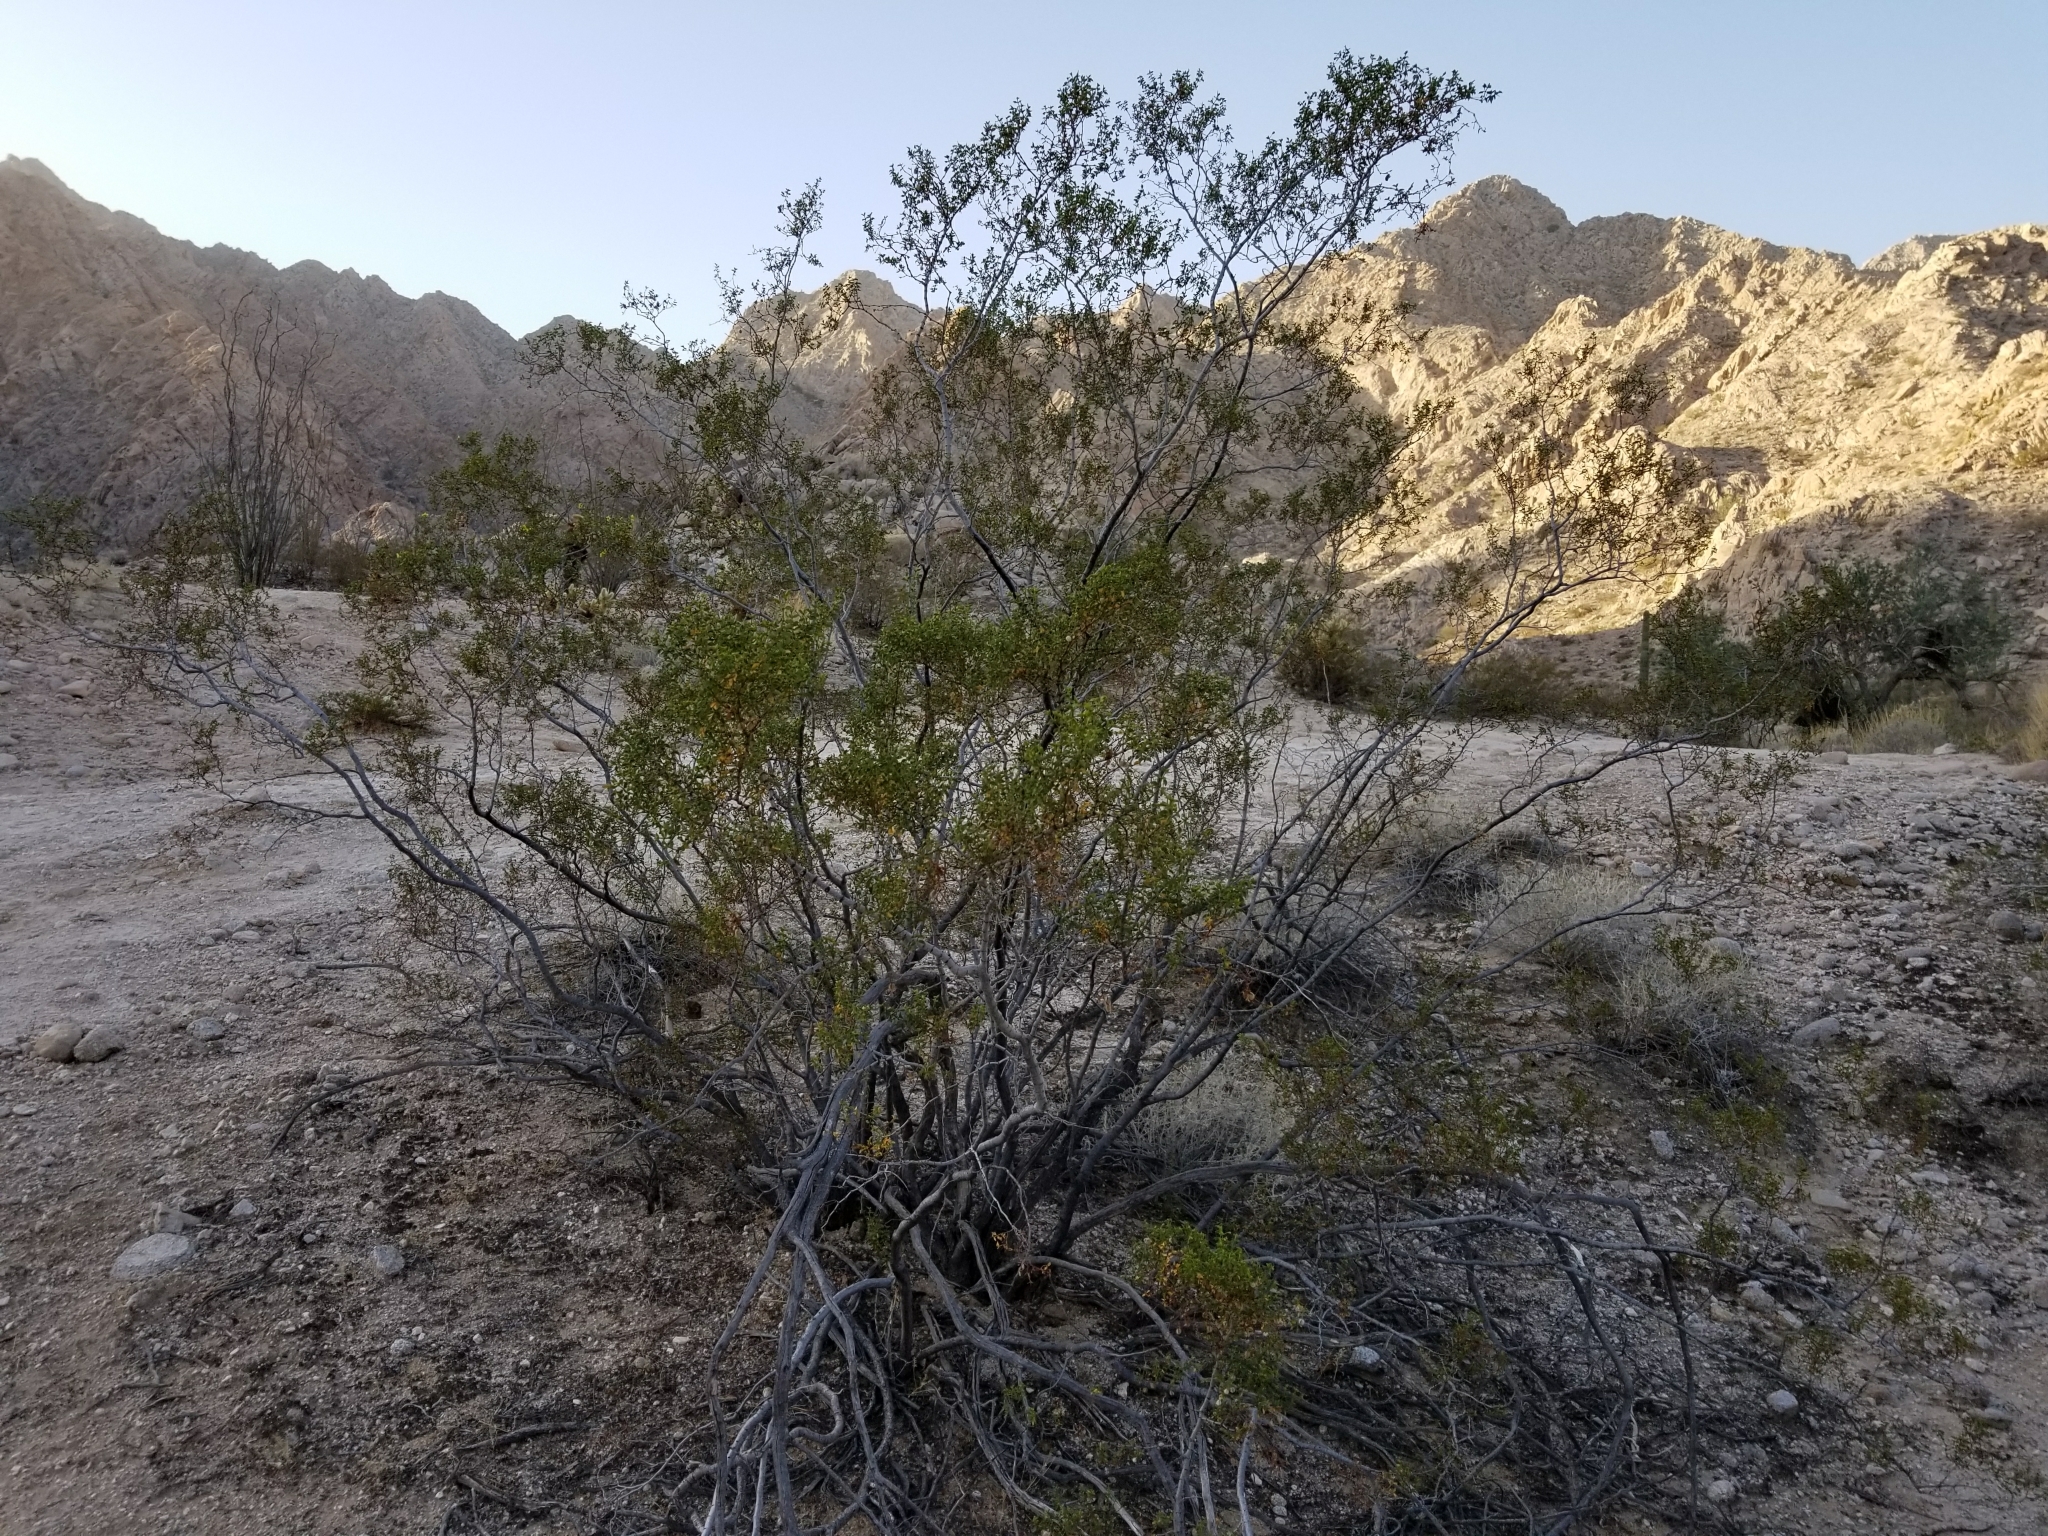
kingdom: Plantae
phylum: Tracheophyta
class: Magnoliopsida
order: Zygophyllales
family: Zygophyllaceae
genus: Larrea
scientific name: Larrea tridentata
